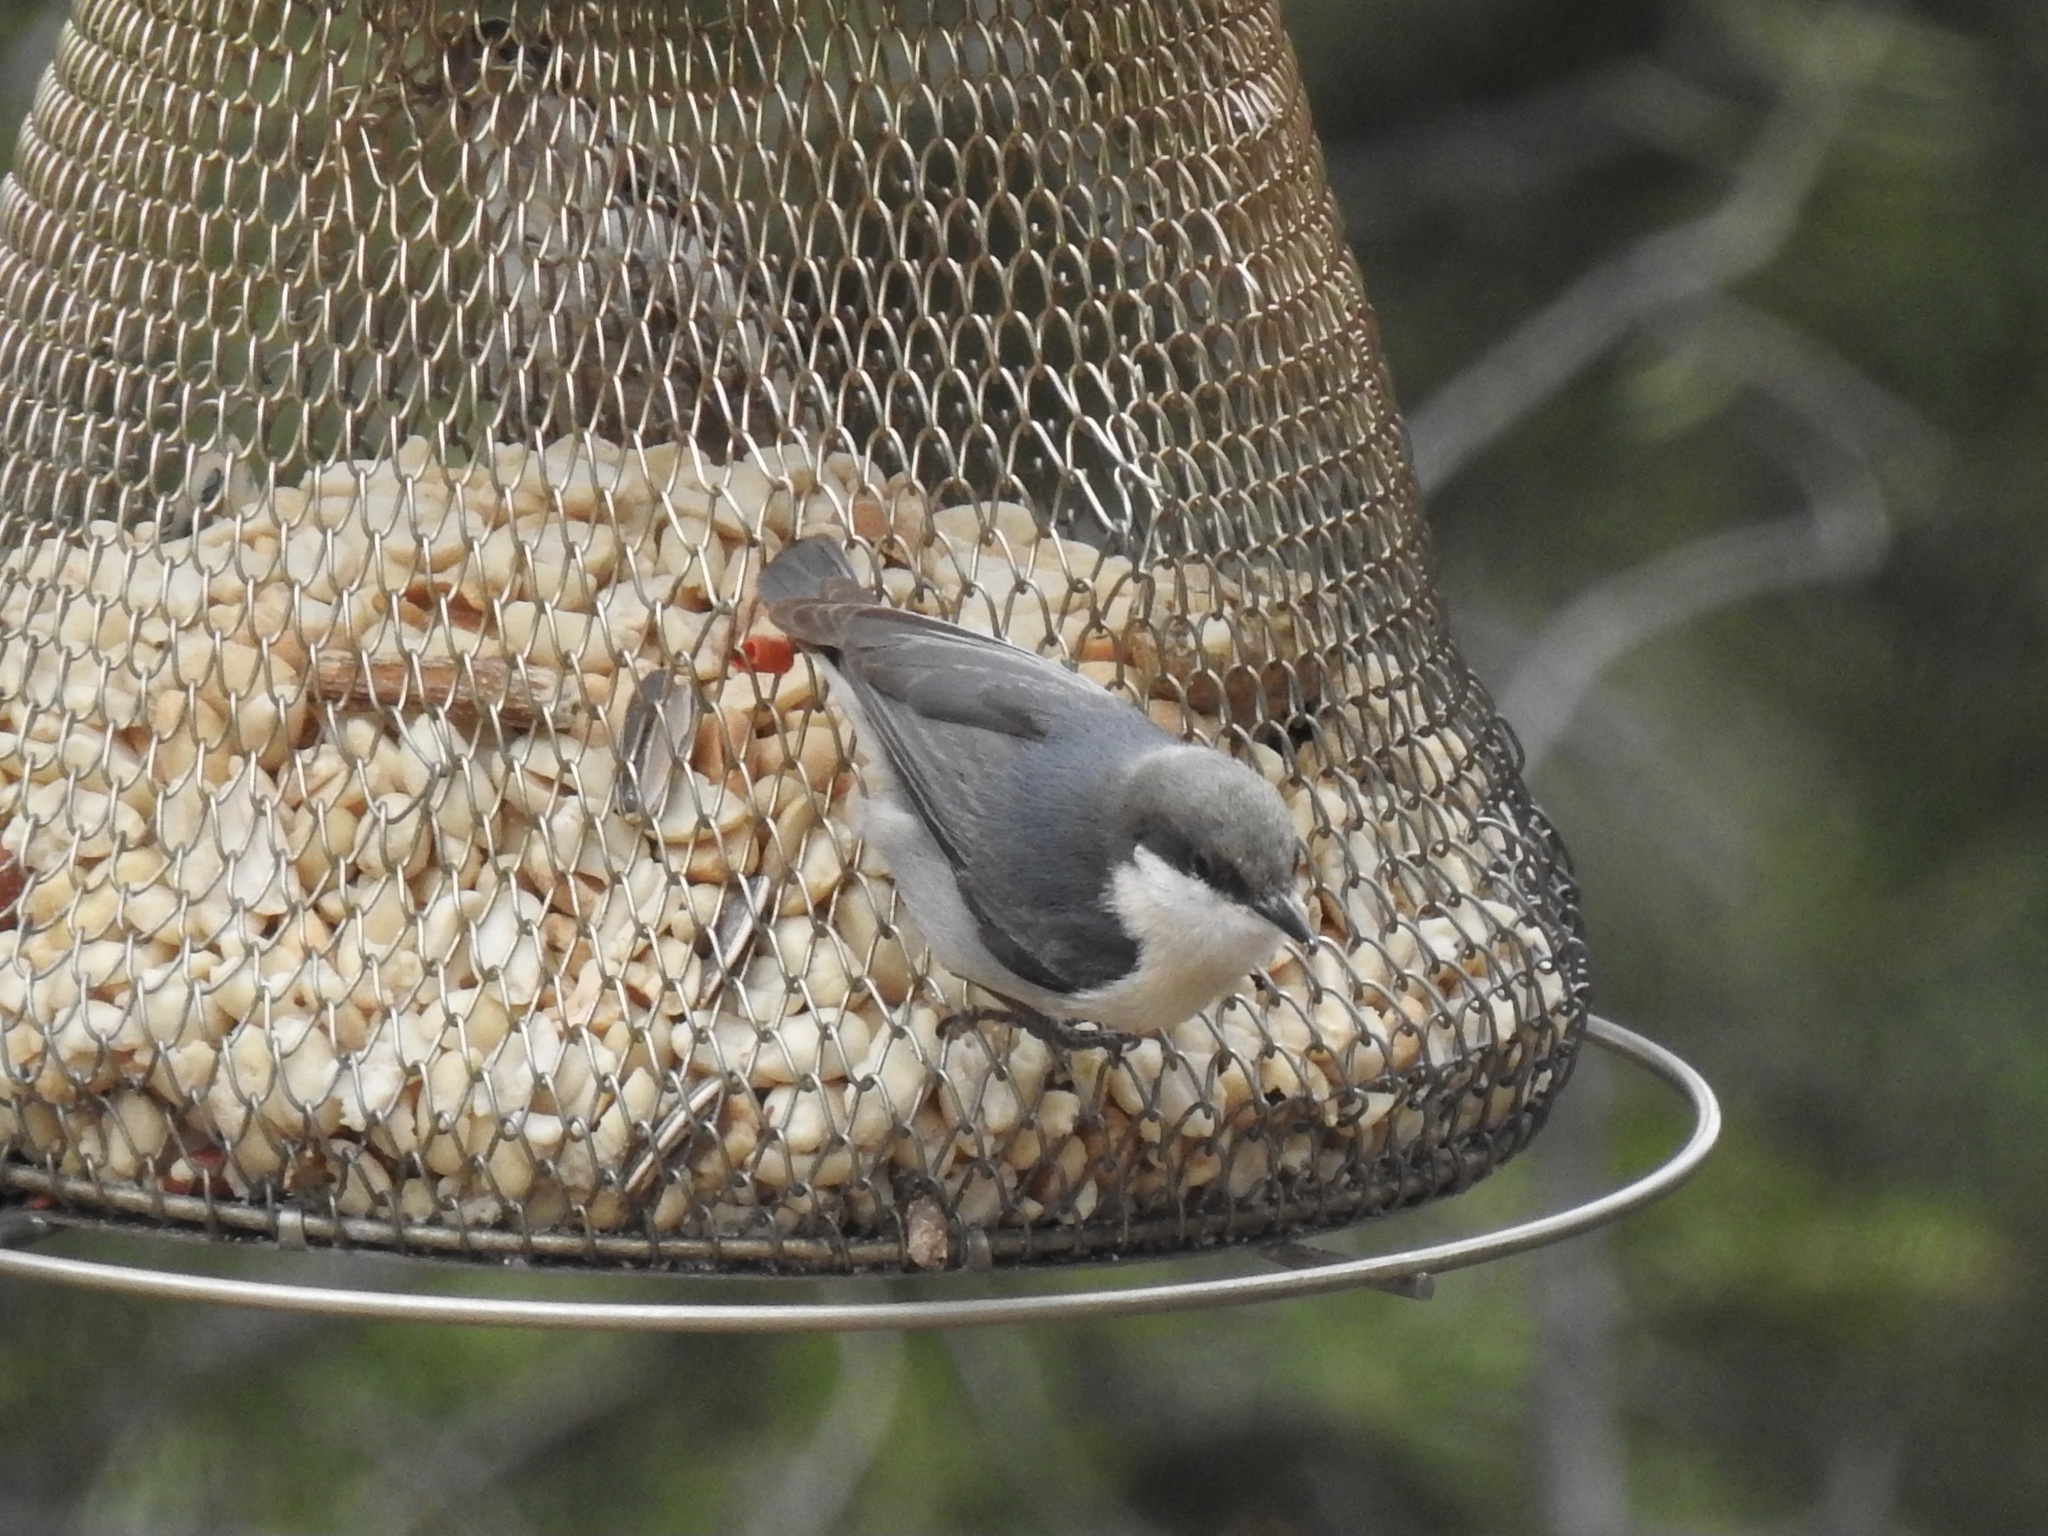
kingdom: Animalia
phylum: Chordata
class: Aves
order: Passeriformes
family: Sittidae
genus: Sitta
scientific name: Sitta pygmaea
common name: Pygmy nuthatch
